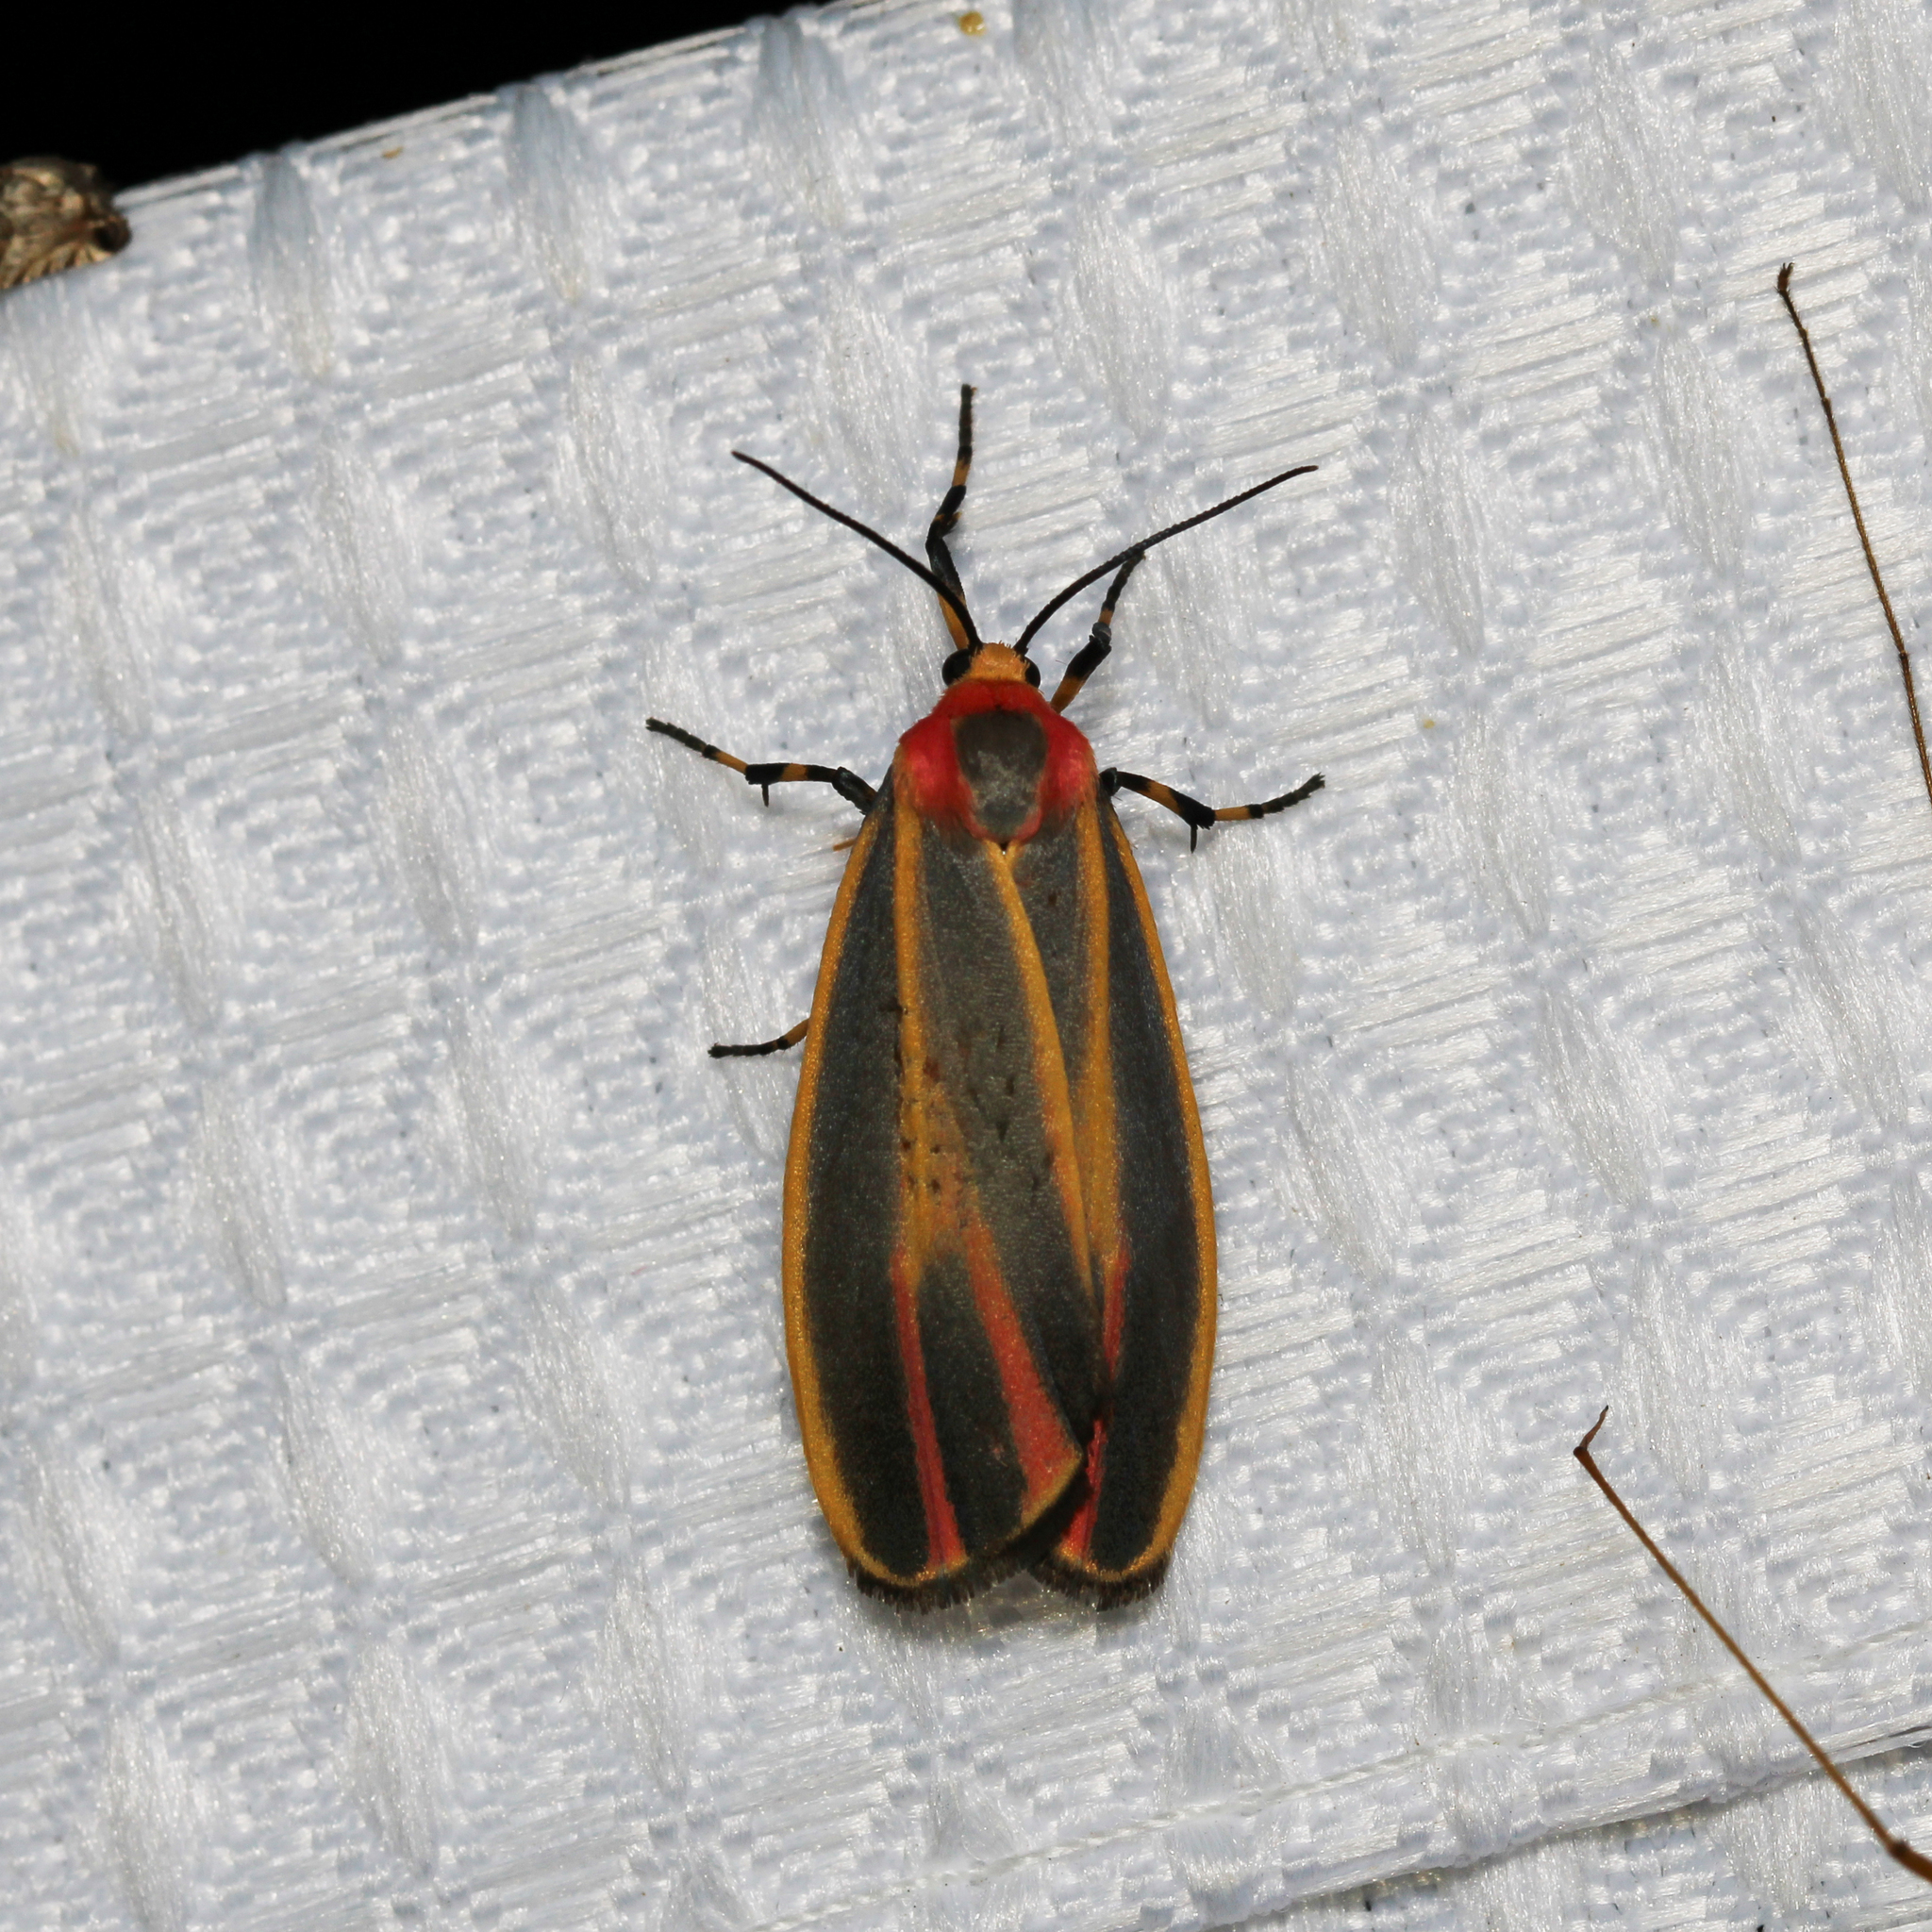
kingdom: Animalia
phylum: Arthropoda
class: Insecta
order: Lepidoptera
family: Erebidae
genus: Hypoprepia
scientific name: Hypoprepia fucosa
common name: Painted lichen moth
